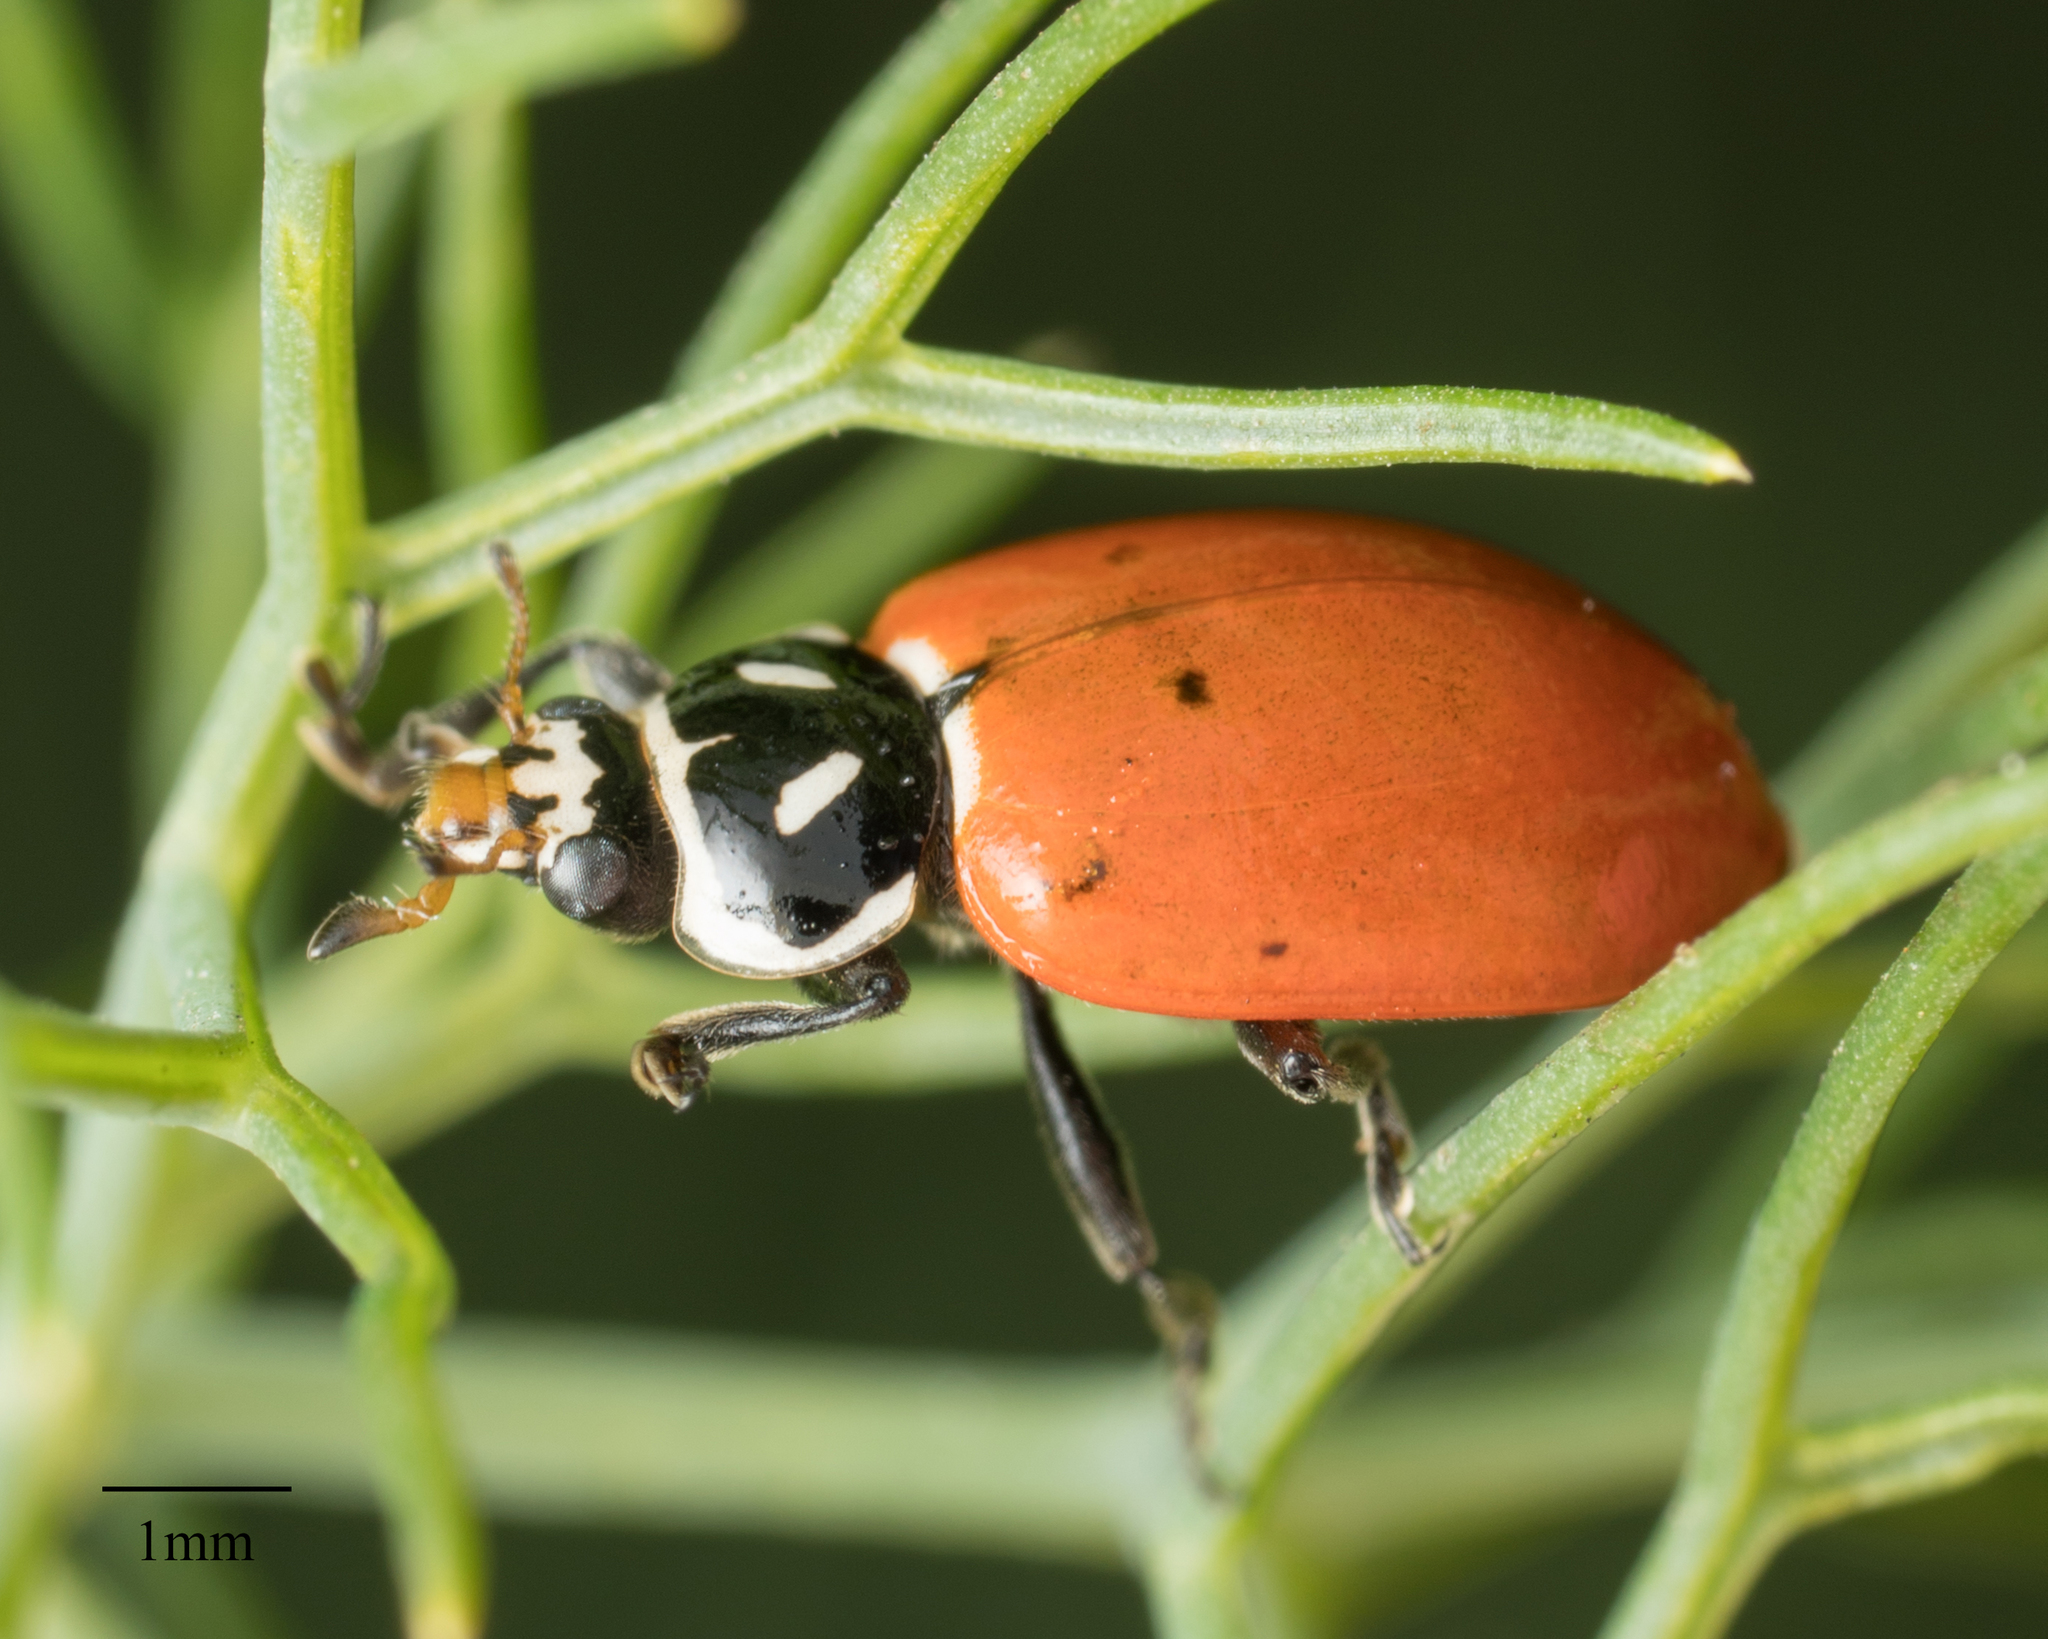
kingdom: Animalia
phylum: Arthropoda
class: Insecta
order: Coleoptera
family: Coccinellidae
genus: Hippodamia
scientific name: Hippodamia convergens
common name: Convergent lady beetle
